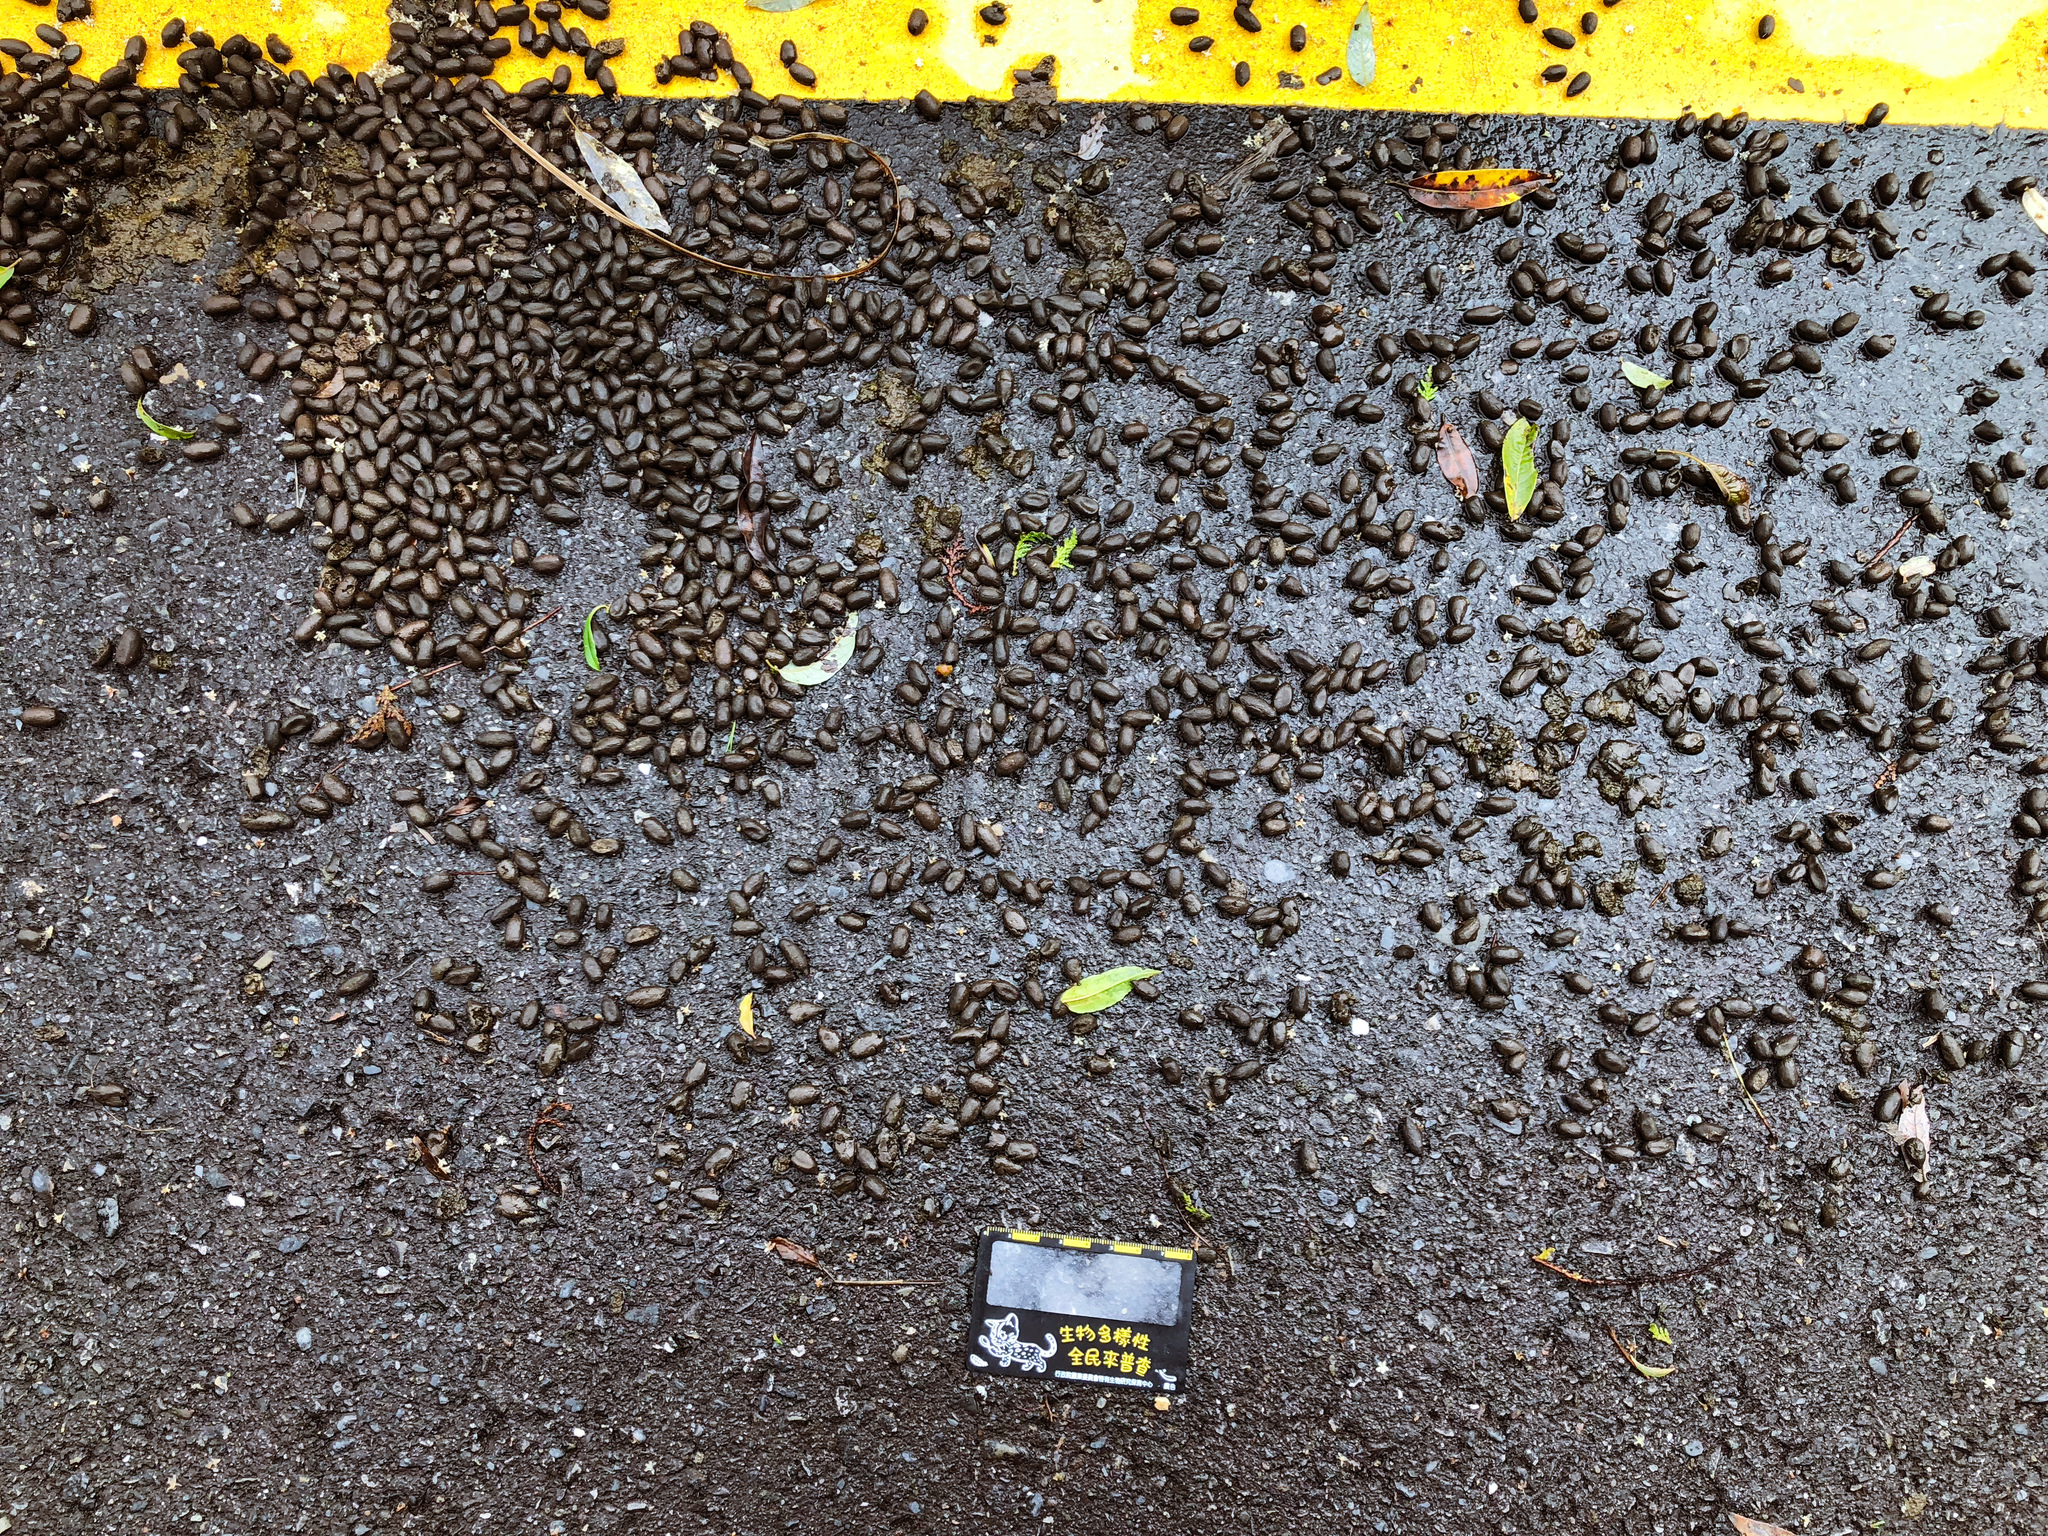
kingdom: Animalia
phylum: Chordata
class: Mammalia
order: Artiodactyla
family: Cervidae
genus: Rusa
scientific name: Rusa unicolor
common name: Sambar
